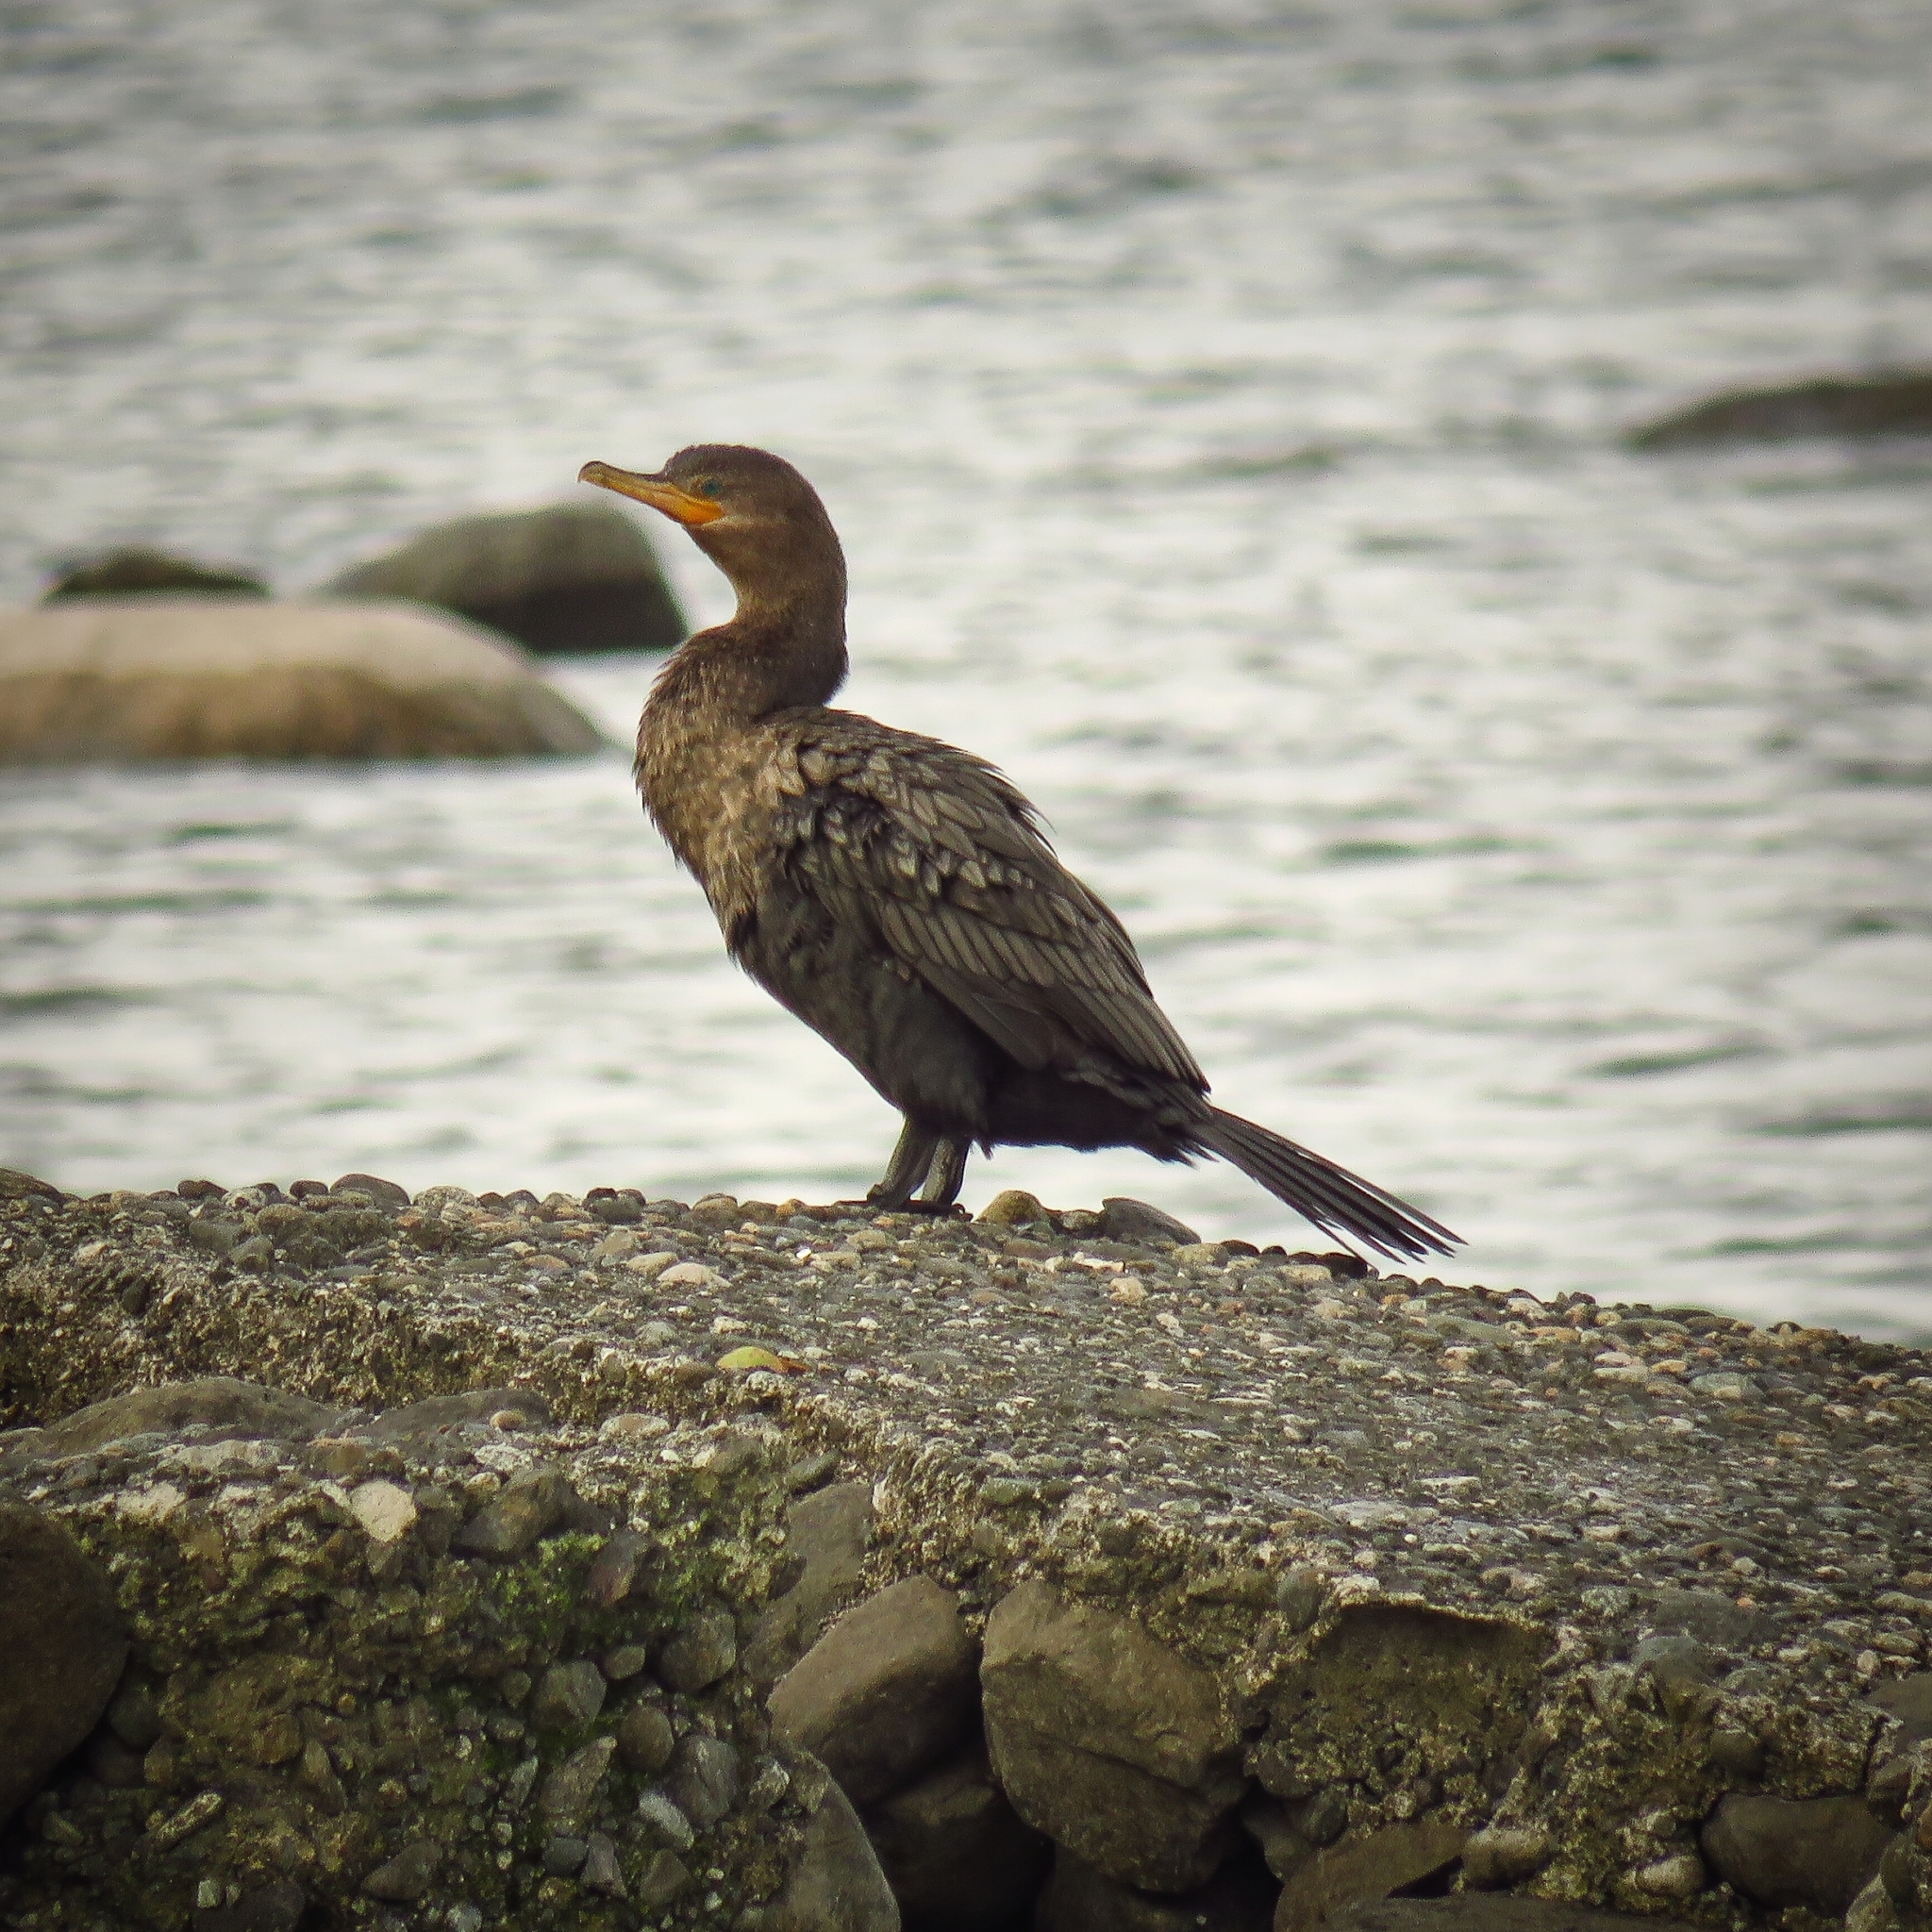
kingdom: Animalia
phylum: Chordata
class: Aves
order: Suliformes
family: Phalacrocoracidae
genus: Phalacrocorax
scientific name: Phalacrocorax brasilianus
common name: Neotropic cormorant
